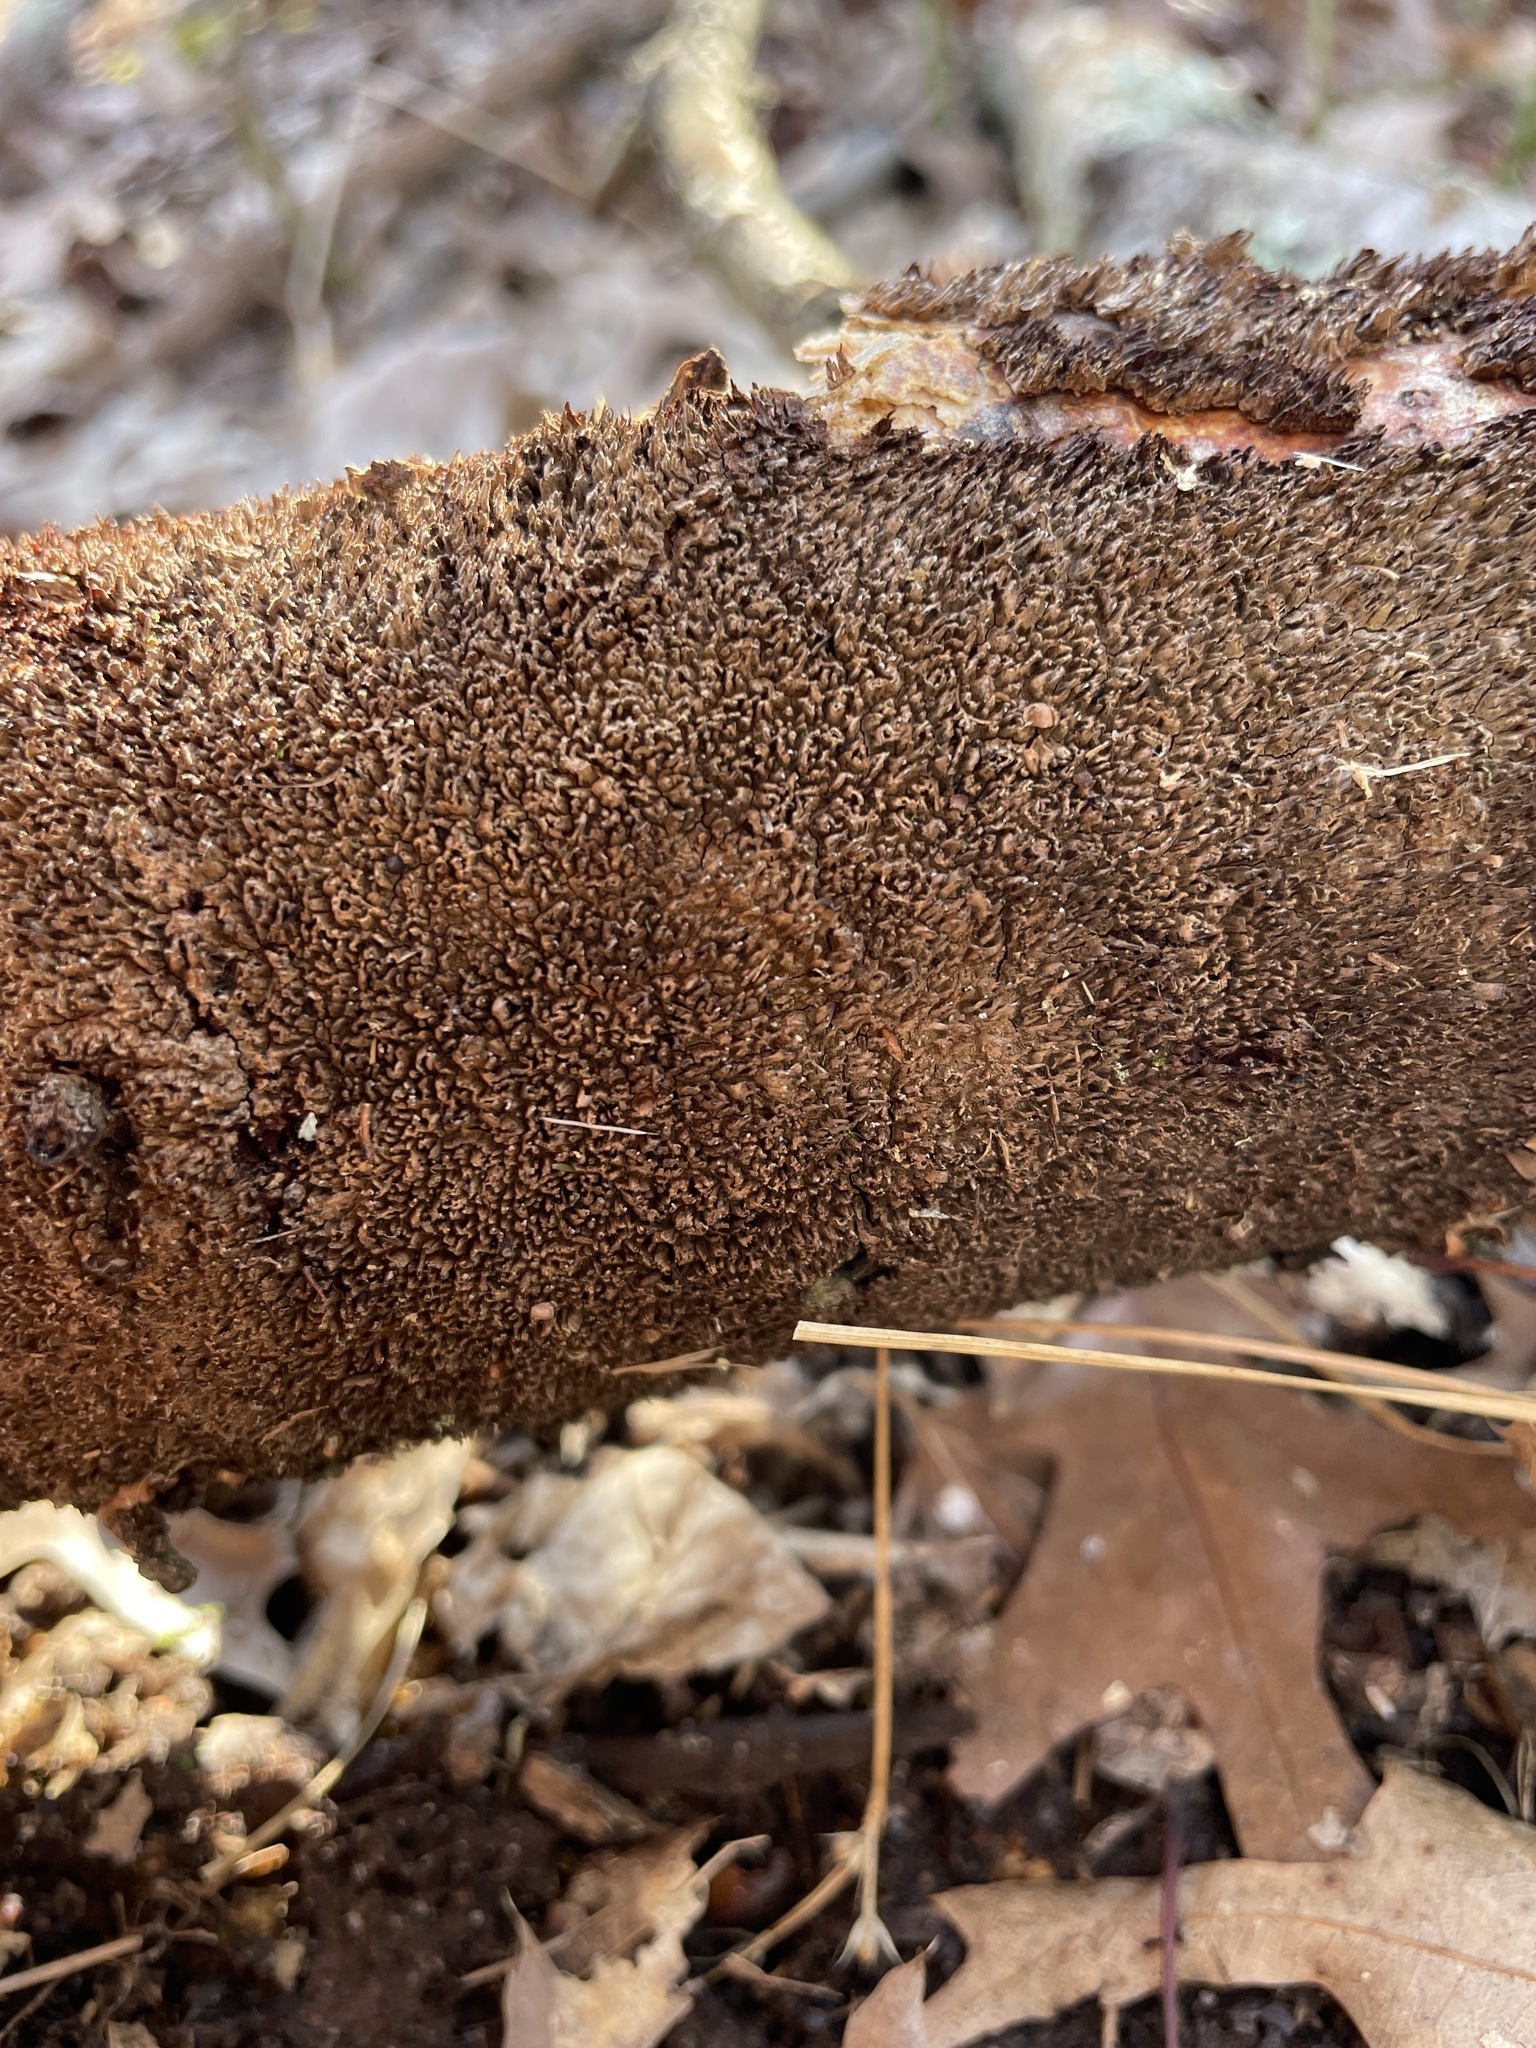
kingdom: Fungi
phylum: Basidiomycota
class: Agaricomycetes
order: Hymenochaetales
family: Hymenochaetaceae
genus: Hydnoporia
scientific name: Hydnoporia olivacea
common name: Brown-toothed crust fungus
